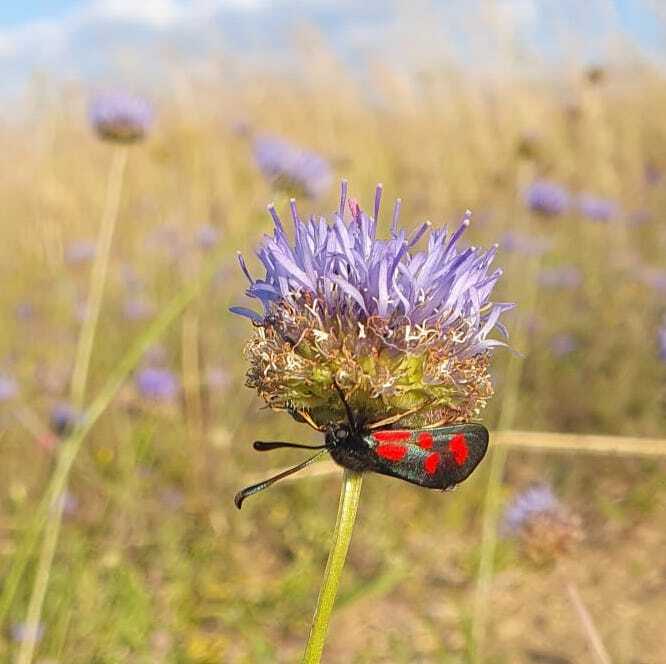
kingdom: Animalia
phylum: Arthropoda
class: Insecta
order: Lepidoptera
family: Zygaenidae
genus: Zygaena
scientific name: Zygaena loti
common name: Slender scotch burnet
